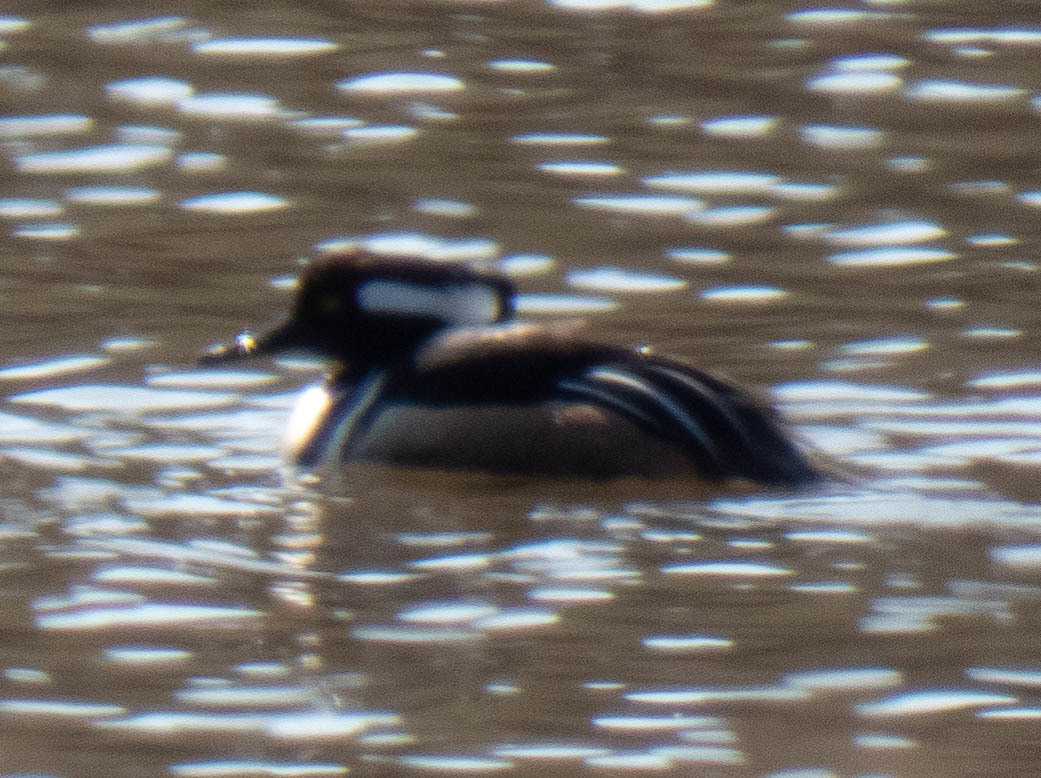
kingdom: Animalia
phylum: Chordata
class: Aves
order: Anseriformes
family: Anatidae
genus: Lophodytes
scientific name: Lophodytes cucullatus
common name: Hooded merganser
